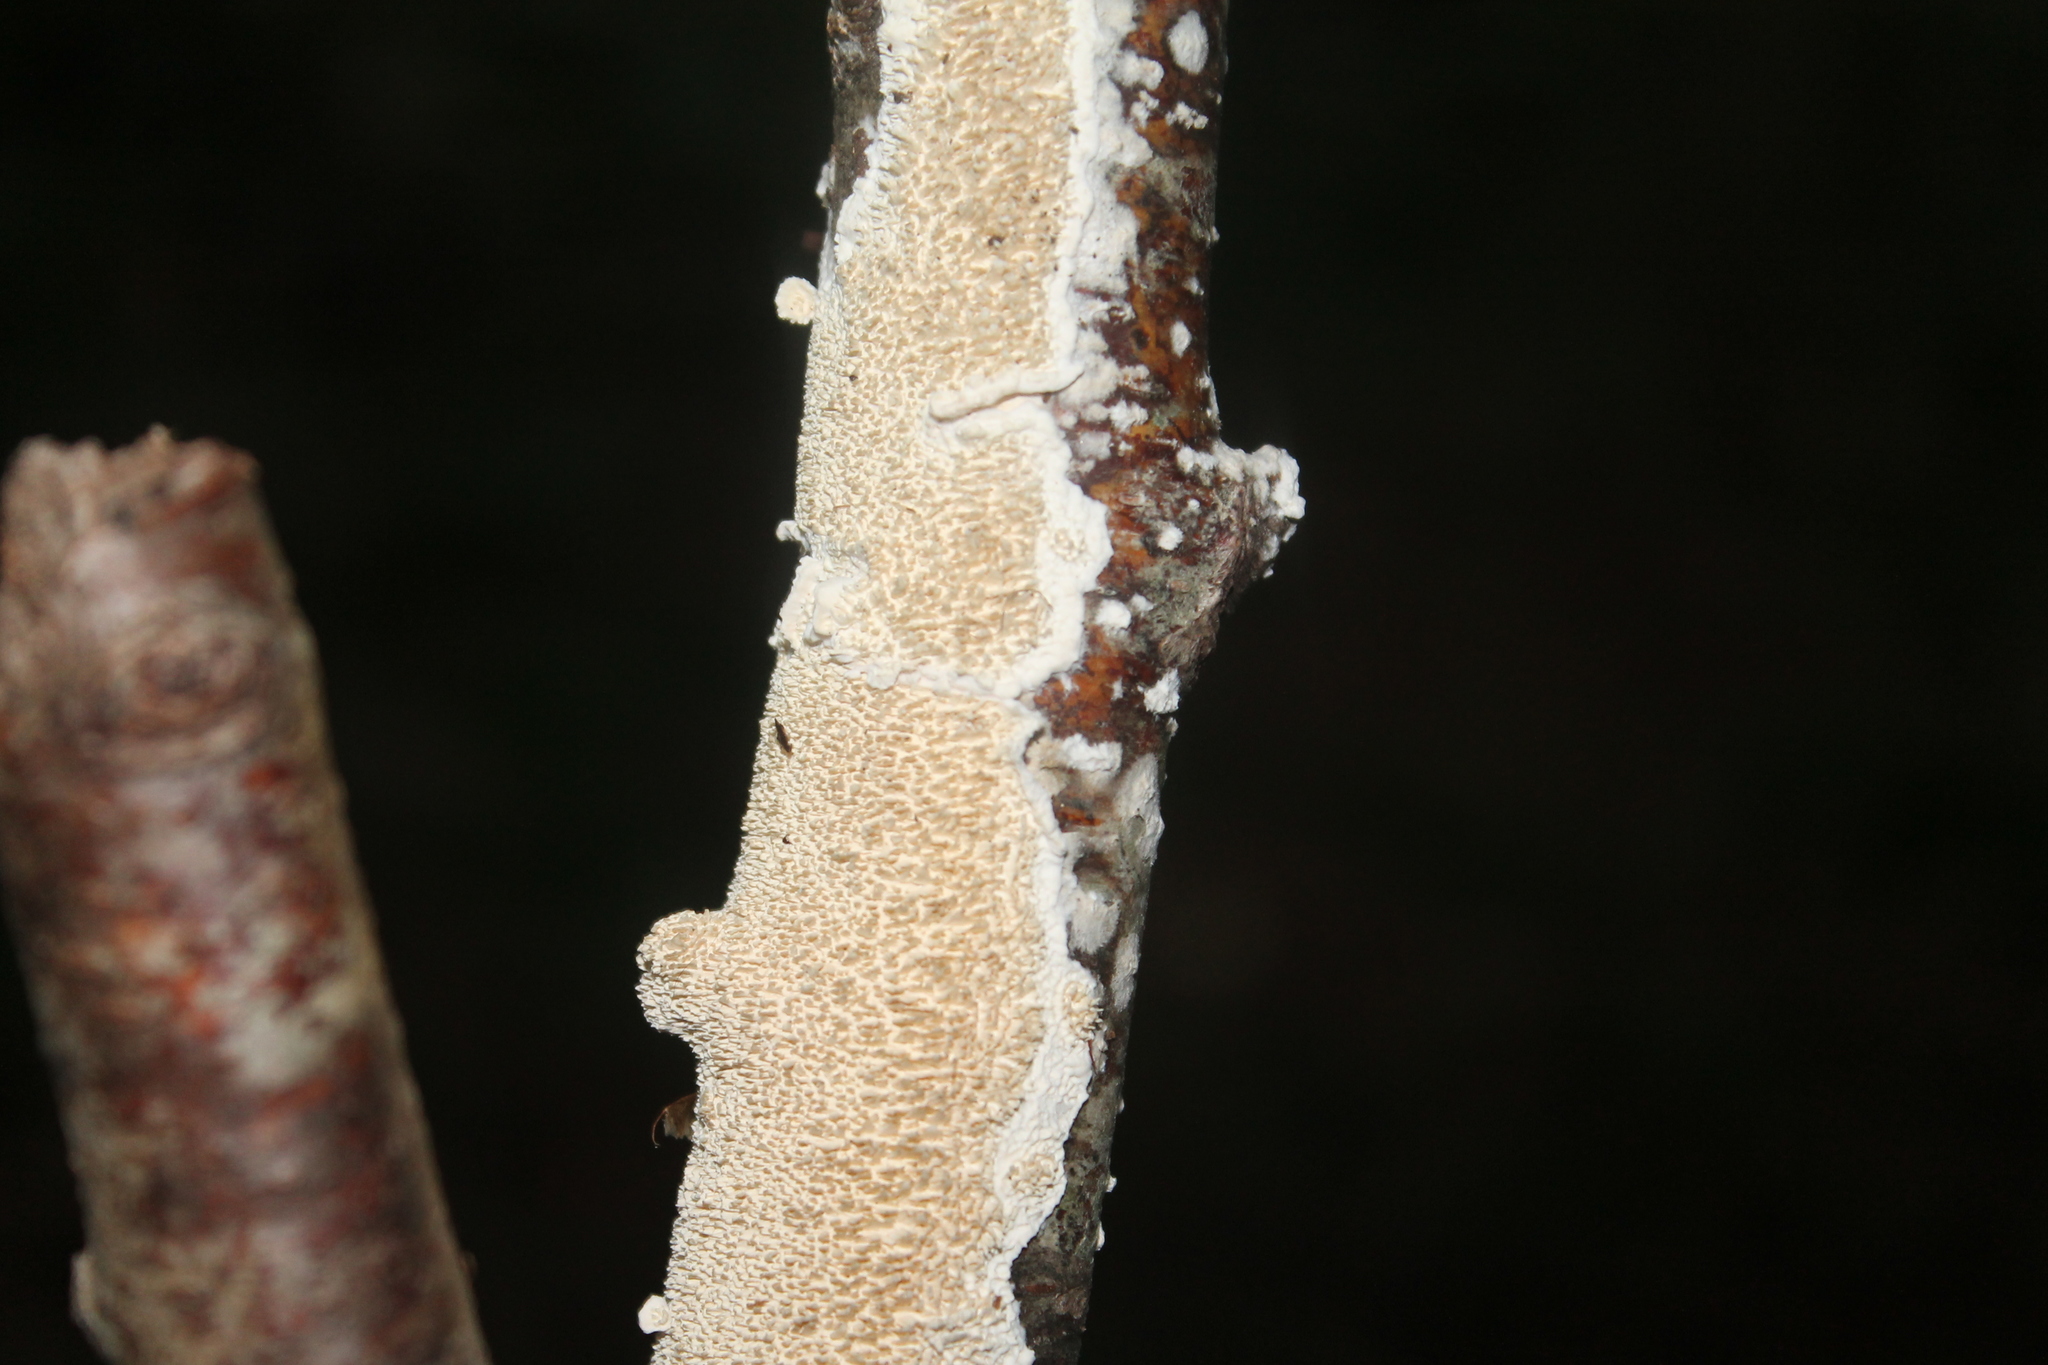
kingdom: Fungi
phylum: Basidiomycota
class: Agaricomycetes
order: Polyporales
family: Irpicaceae
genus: Irpex
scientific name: Irpex lacteus
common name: Milk-white toothed polypore
